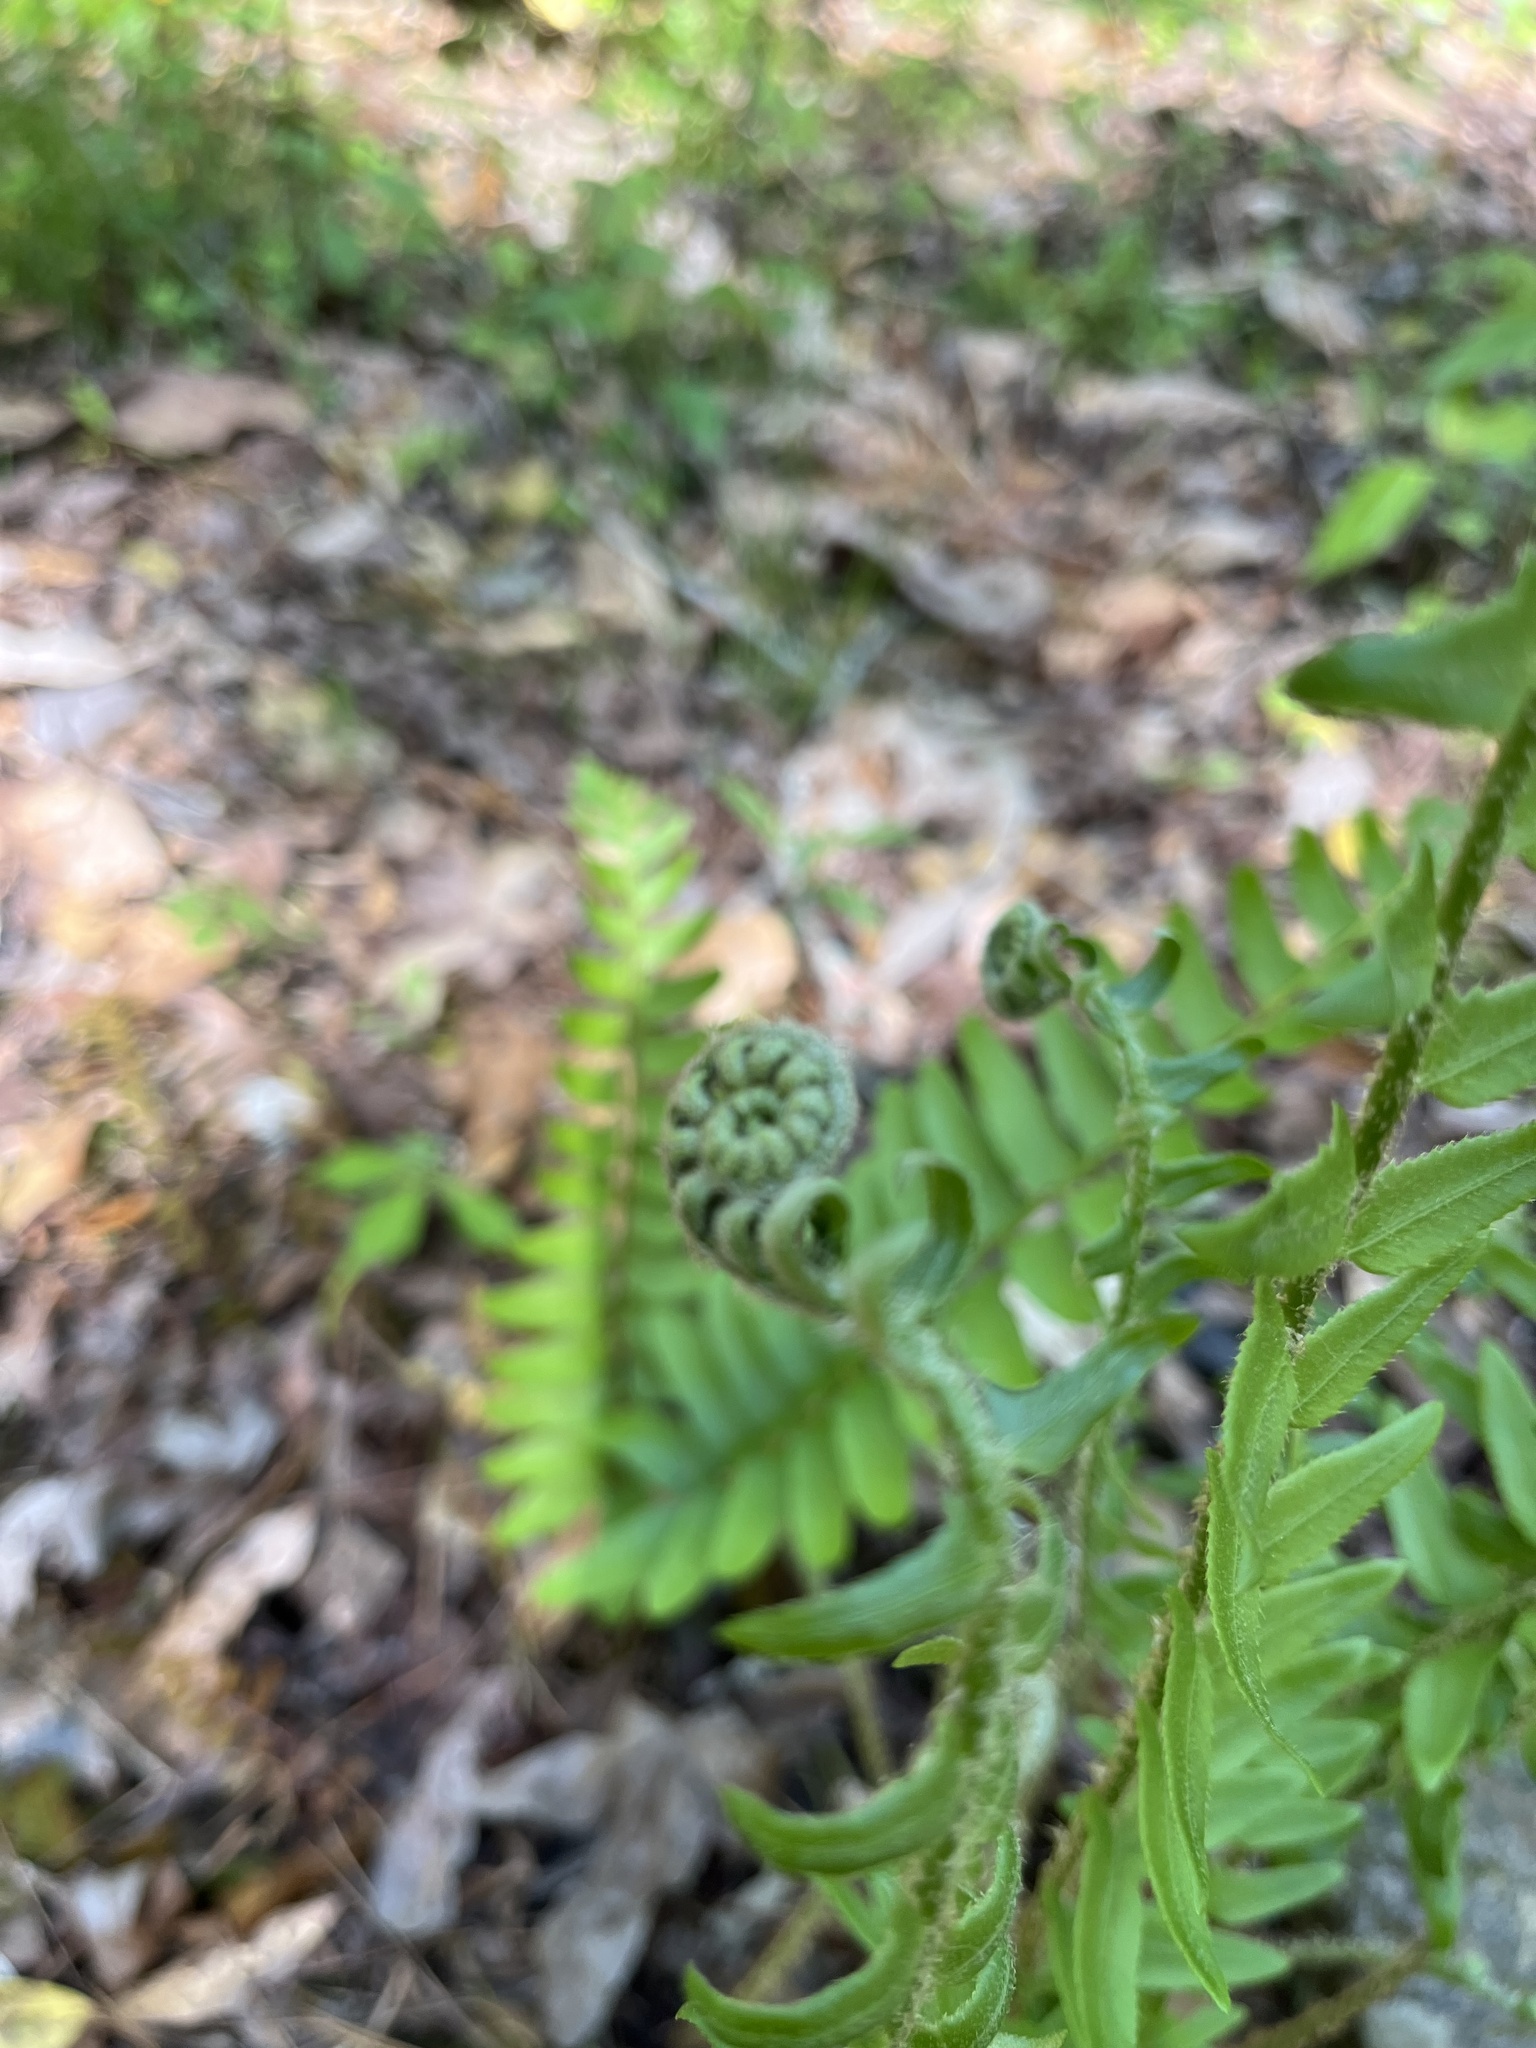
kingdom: Plantae
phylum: Tracheophyta
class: Polypodiopsida
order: Polypodiales
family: Dryopteridaceae
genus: Polystichum
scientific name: Polystichum acrostichoides
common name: Christmas fern
